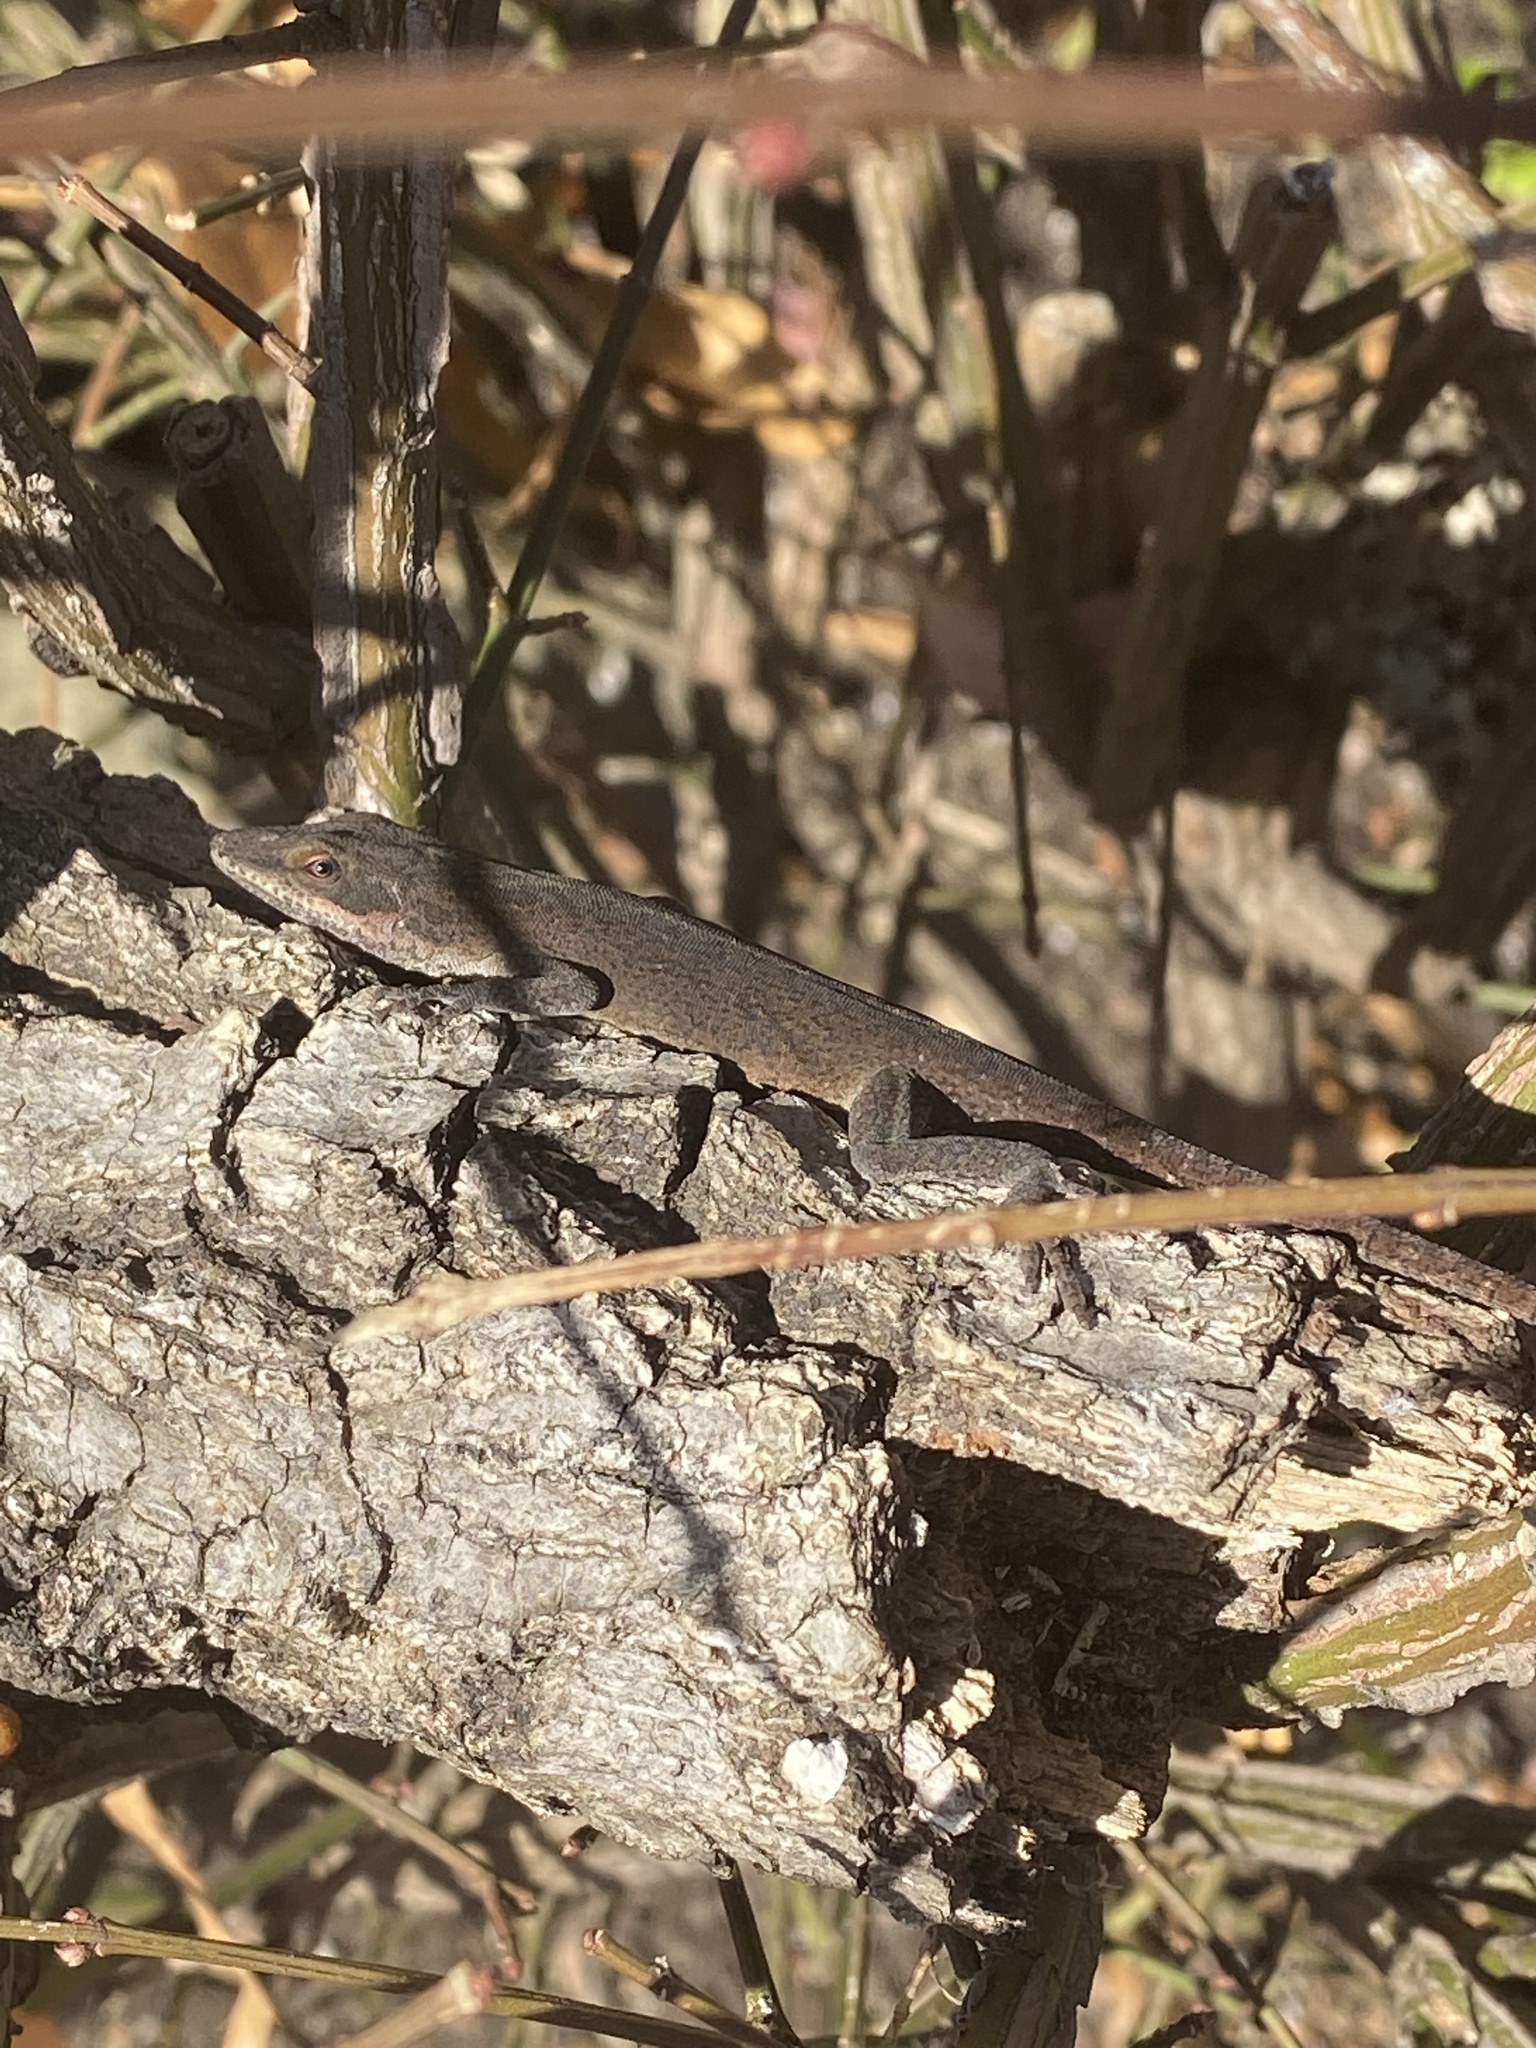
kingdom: Animalia
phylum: Chordata
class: Squamata
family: Dactyloidae
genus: Anolis
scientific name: Anolis carolinensis
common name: Green anole
